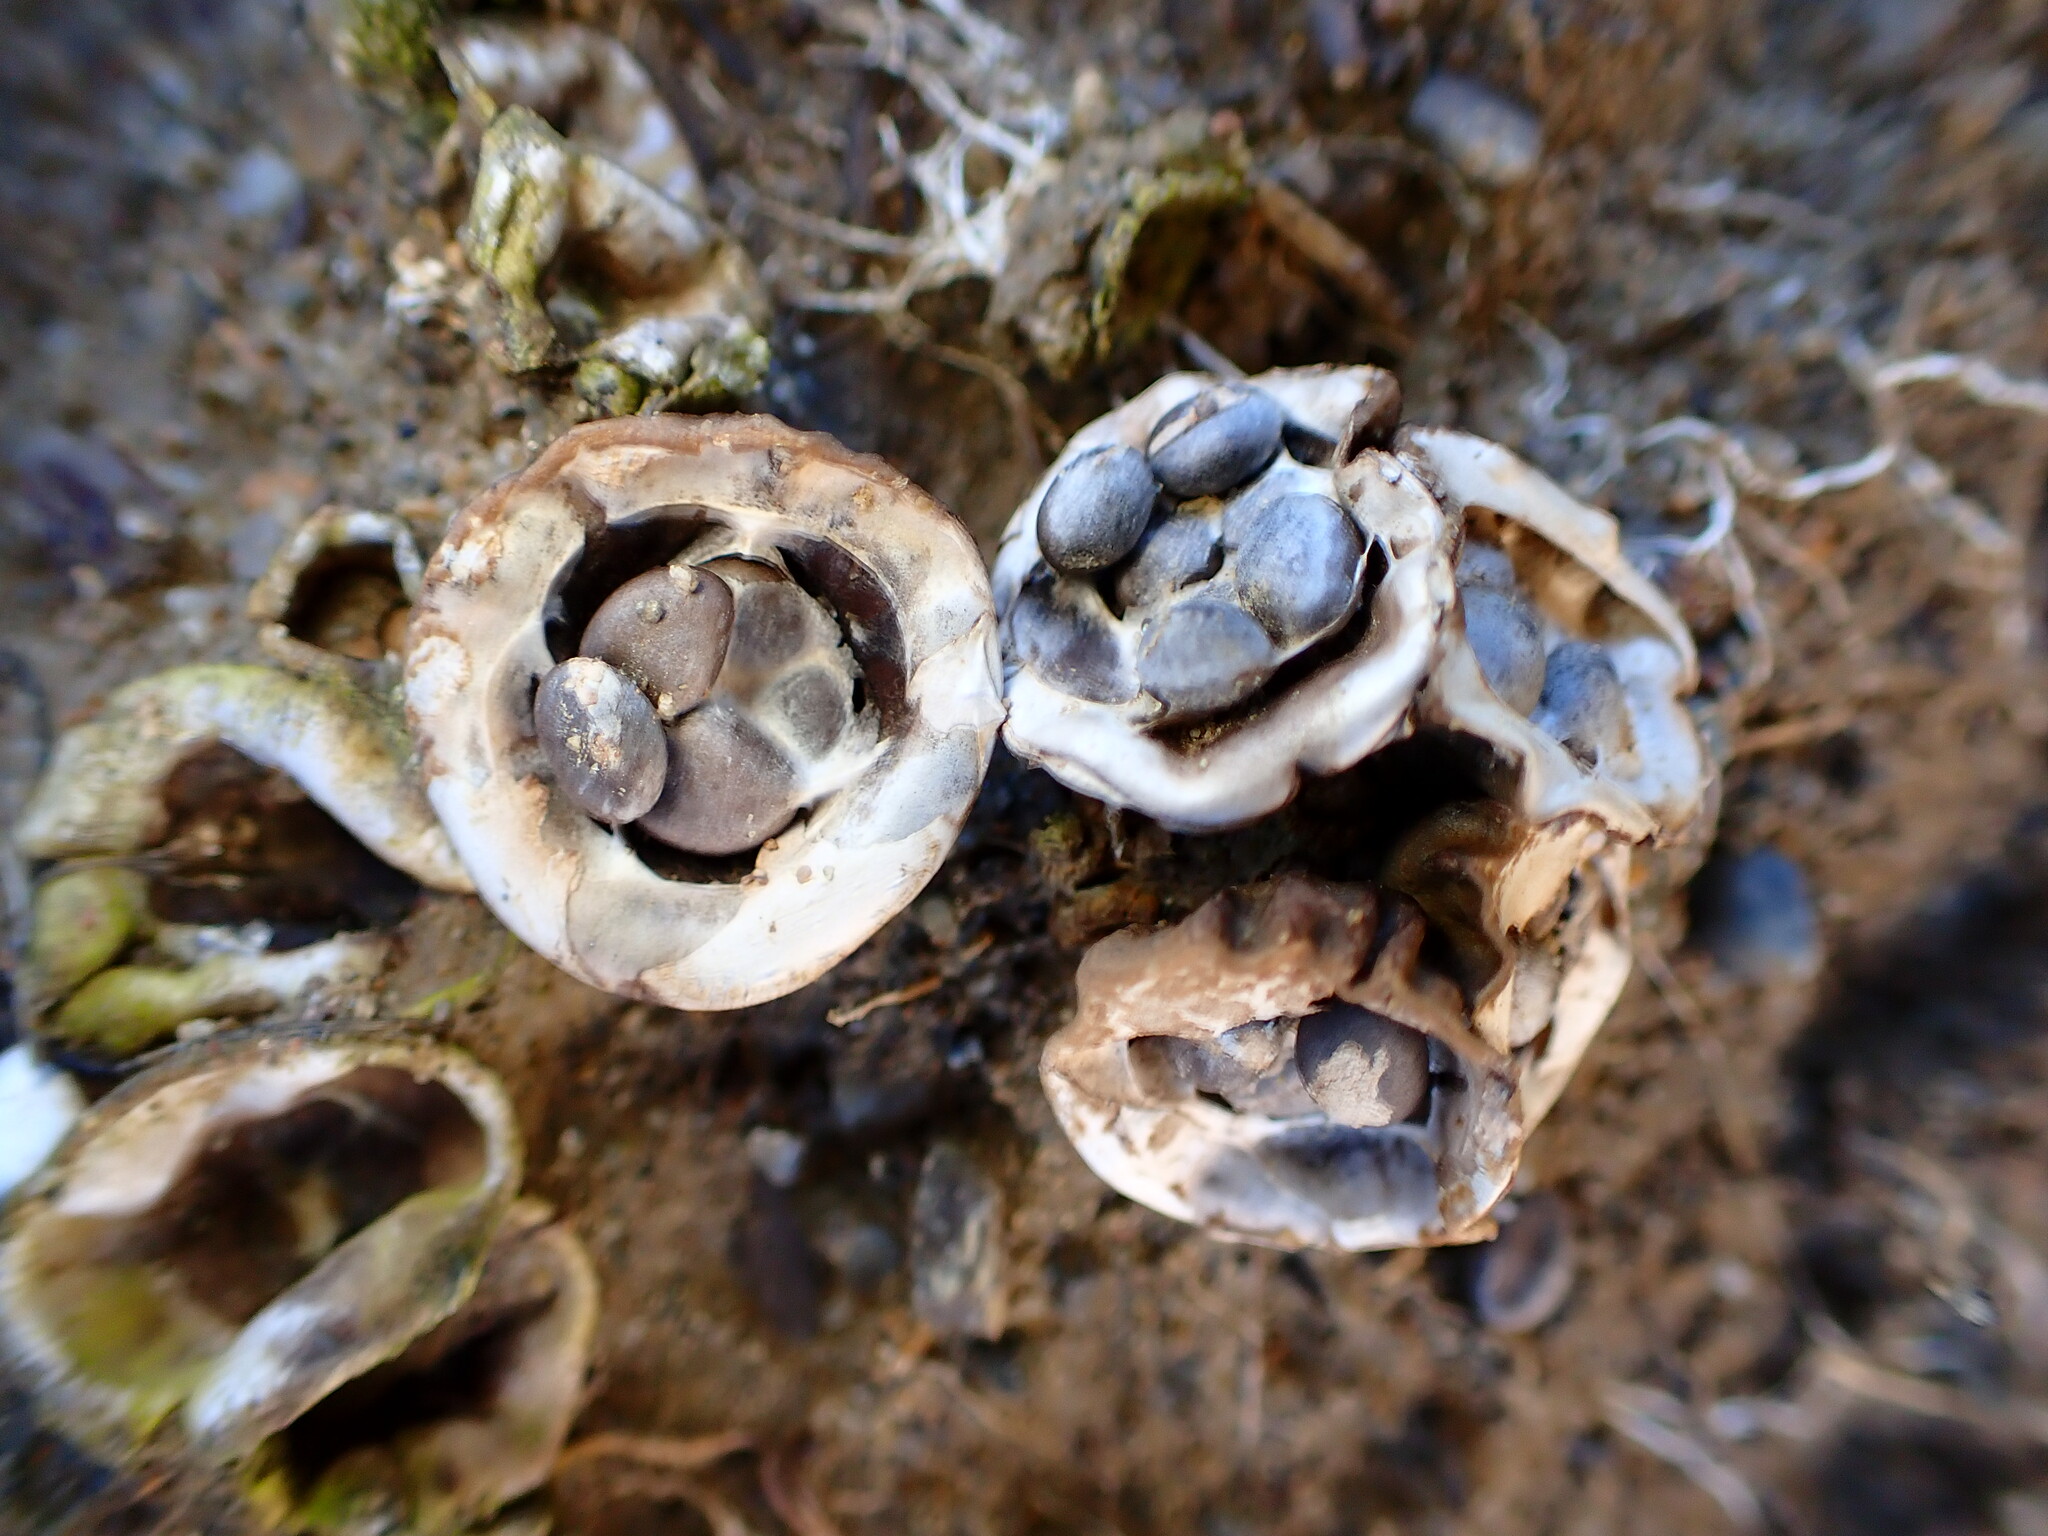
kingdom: Fungi
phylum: Basidiomycota
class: Agaricomycetes
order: Agaricales
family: Agaricaceae
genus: Cyathus
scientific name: Cyathus olla
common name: Field bird's nest
